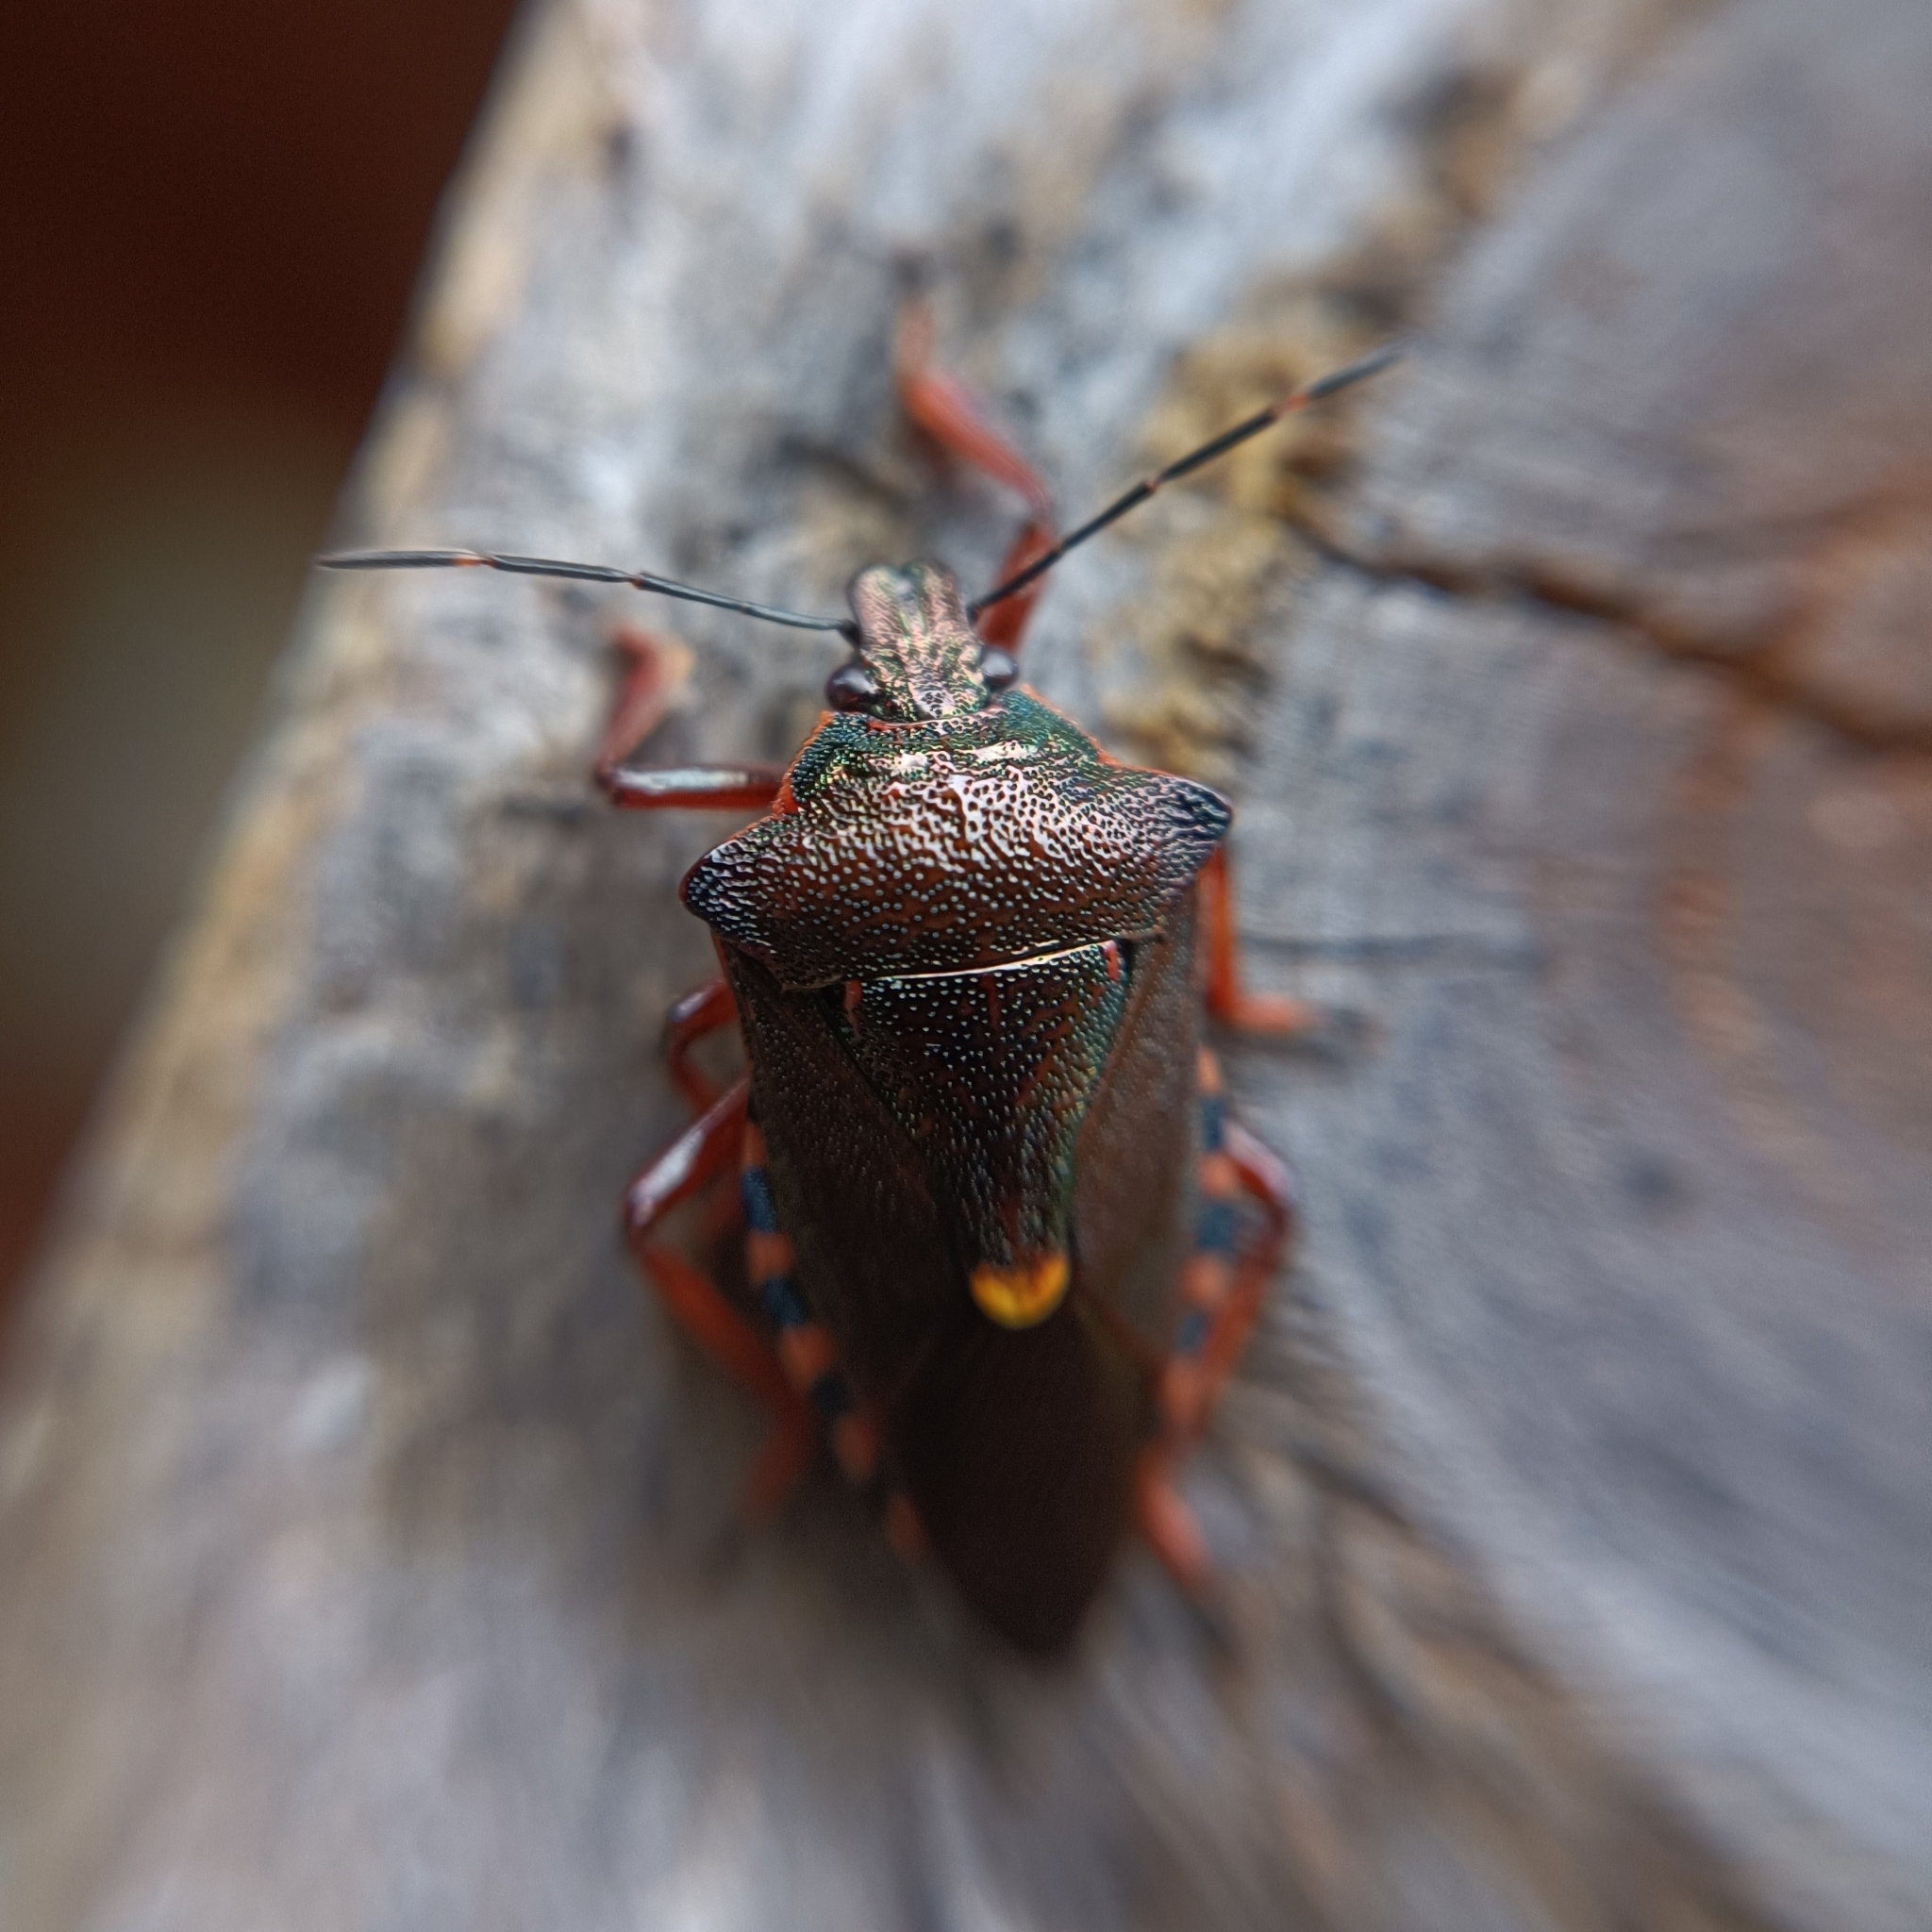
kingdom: Animalia
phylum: Arthropoda
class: Insecta
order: Hemiptera
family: Pentatomidae
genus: Pinthaeus
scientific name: Pinthaeus sanguinipes
